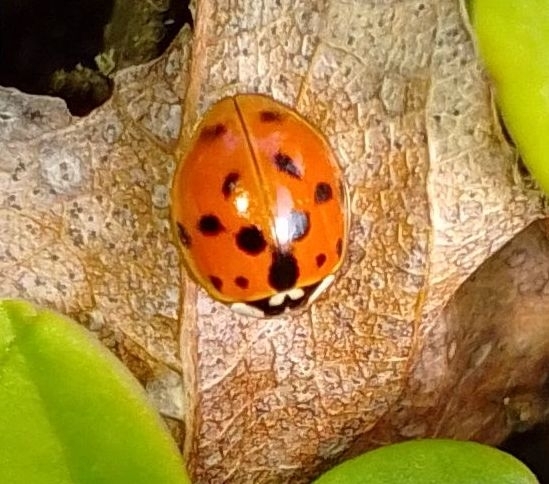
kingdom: Animalia
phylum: Arthropoda
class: Insecta
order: Coleoptera
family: Coccinellidae
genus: Harmonia
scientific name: Harmonia axyridis
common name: Harlequin ladybird
